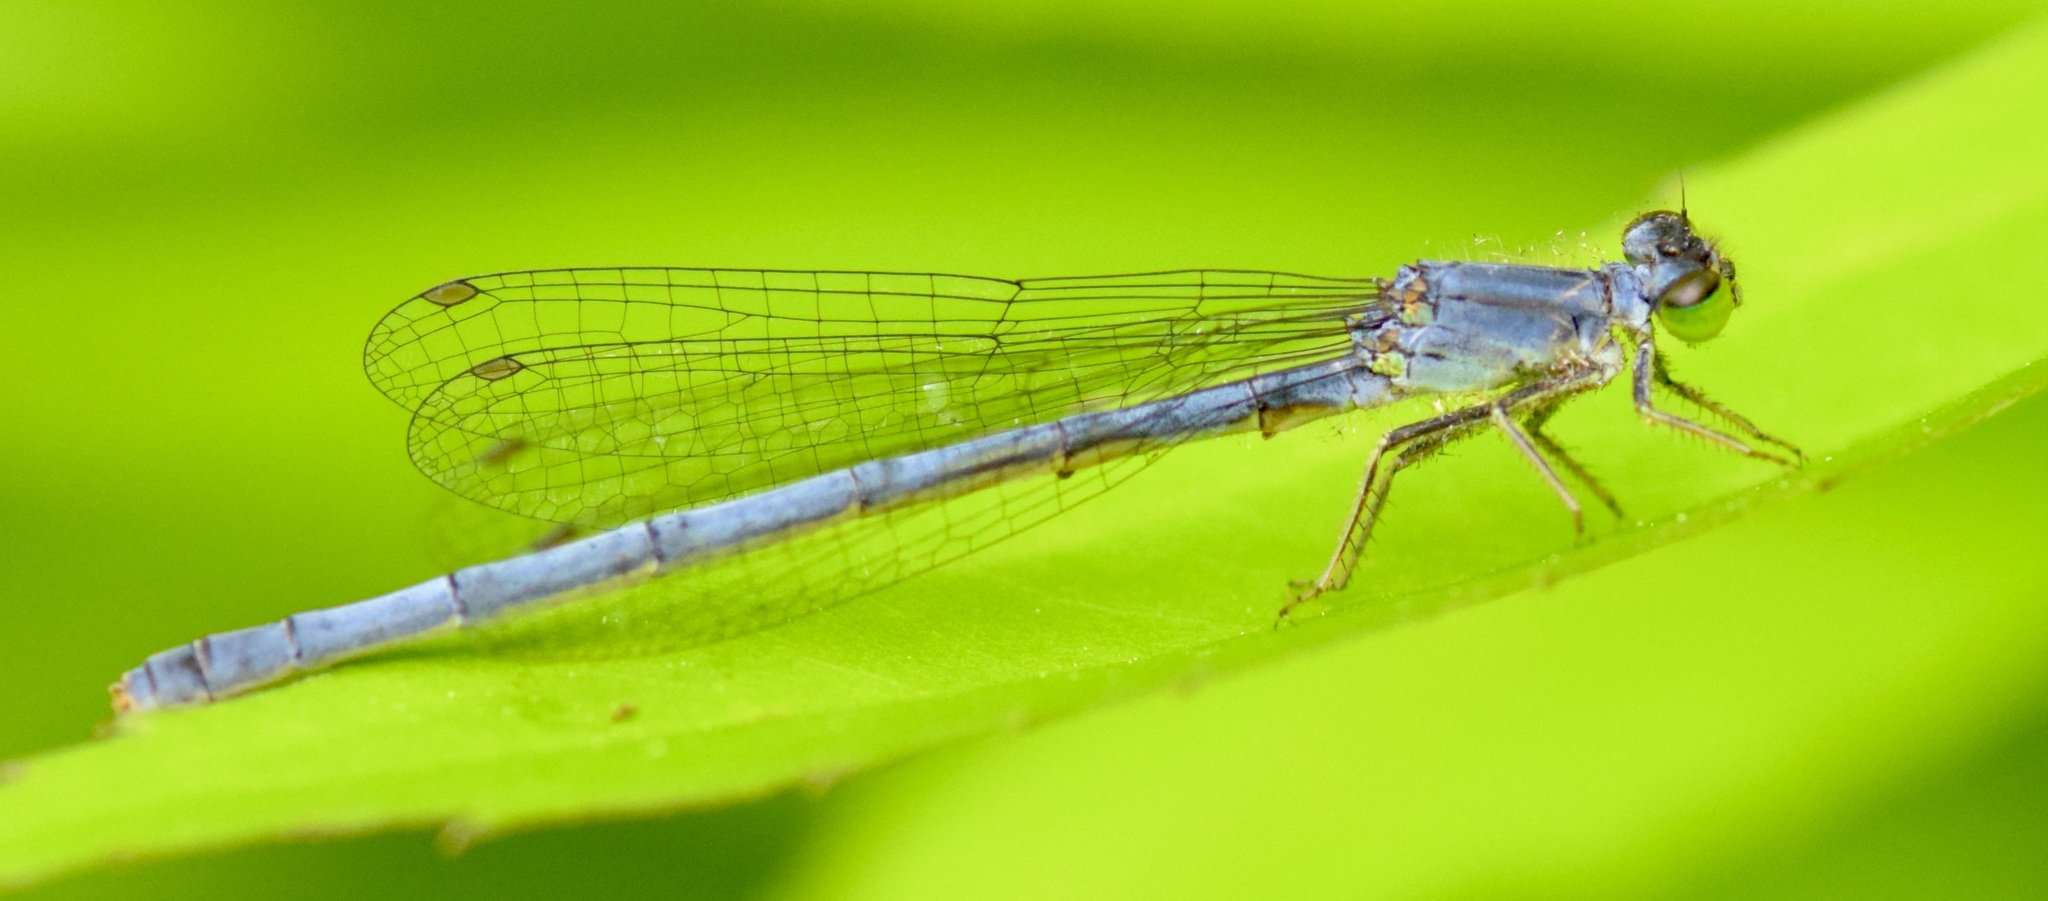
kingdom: Animalia
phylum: Arthropoda
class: Insecta
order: Odonata
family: Coenagrionidae
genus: Ischnura
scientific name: Ischnura verticalis
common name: Eastern forktail
